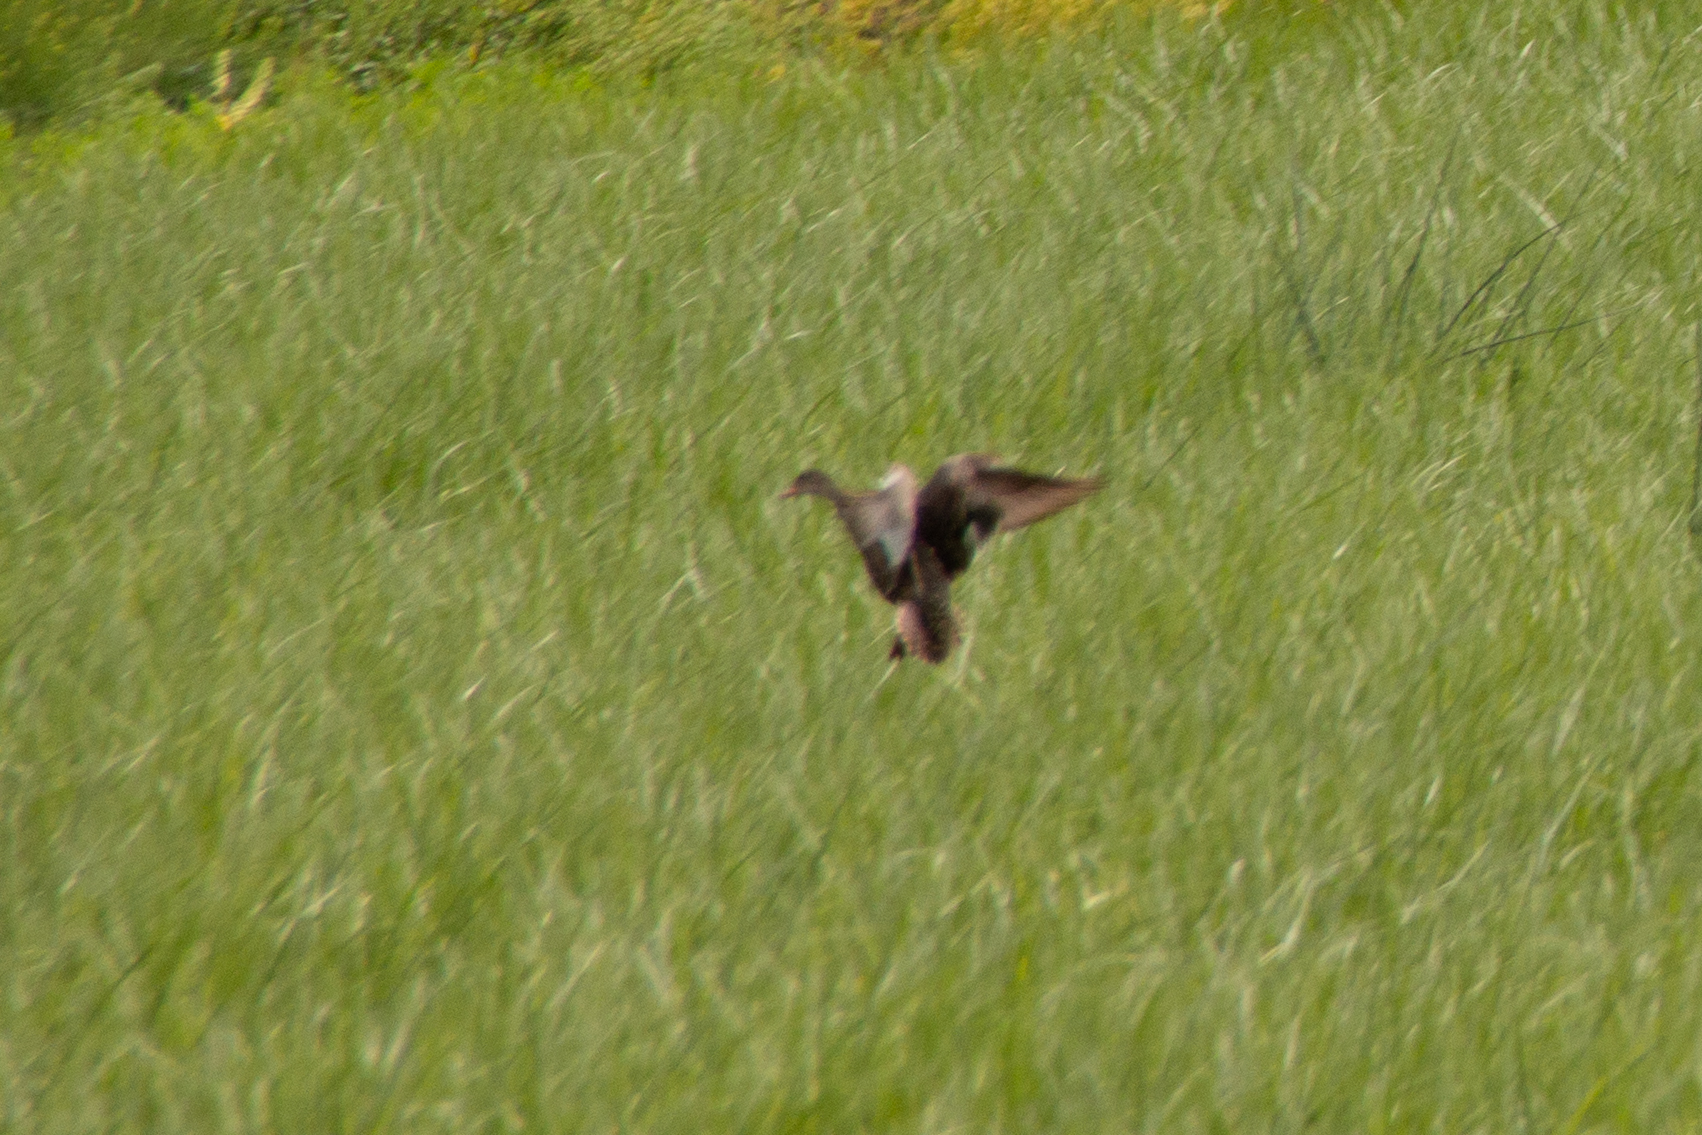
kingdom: Animalia
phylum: Chordata
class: Aves
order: Anseriformes
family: Anatidae
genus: Mareca
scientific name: Mareca strepera
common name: Gadwall
